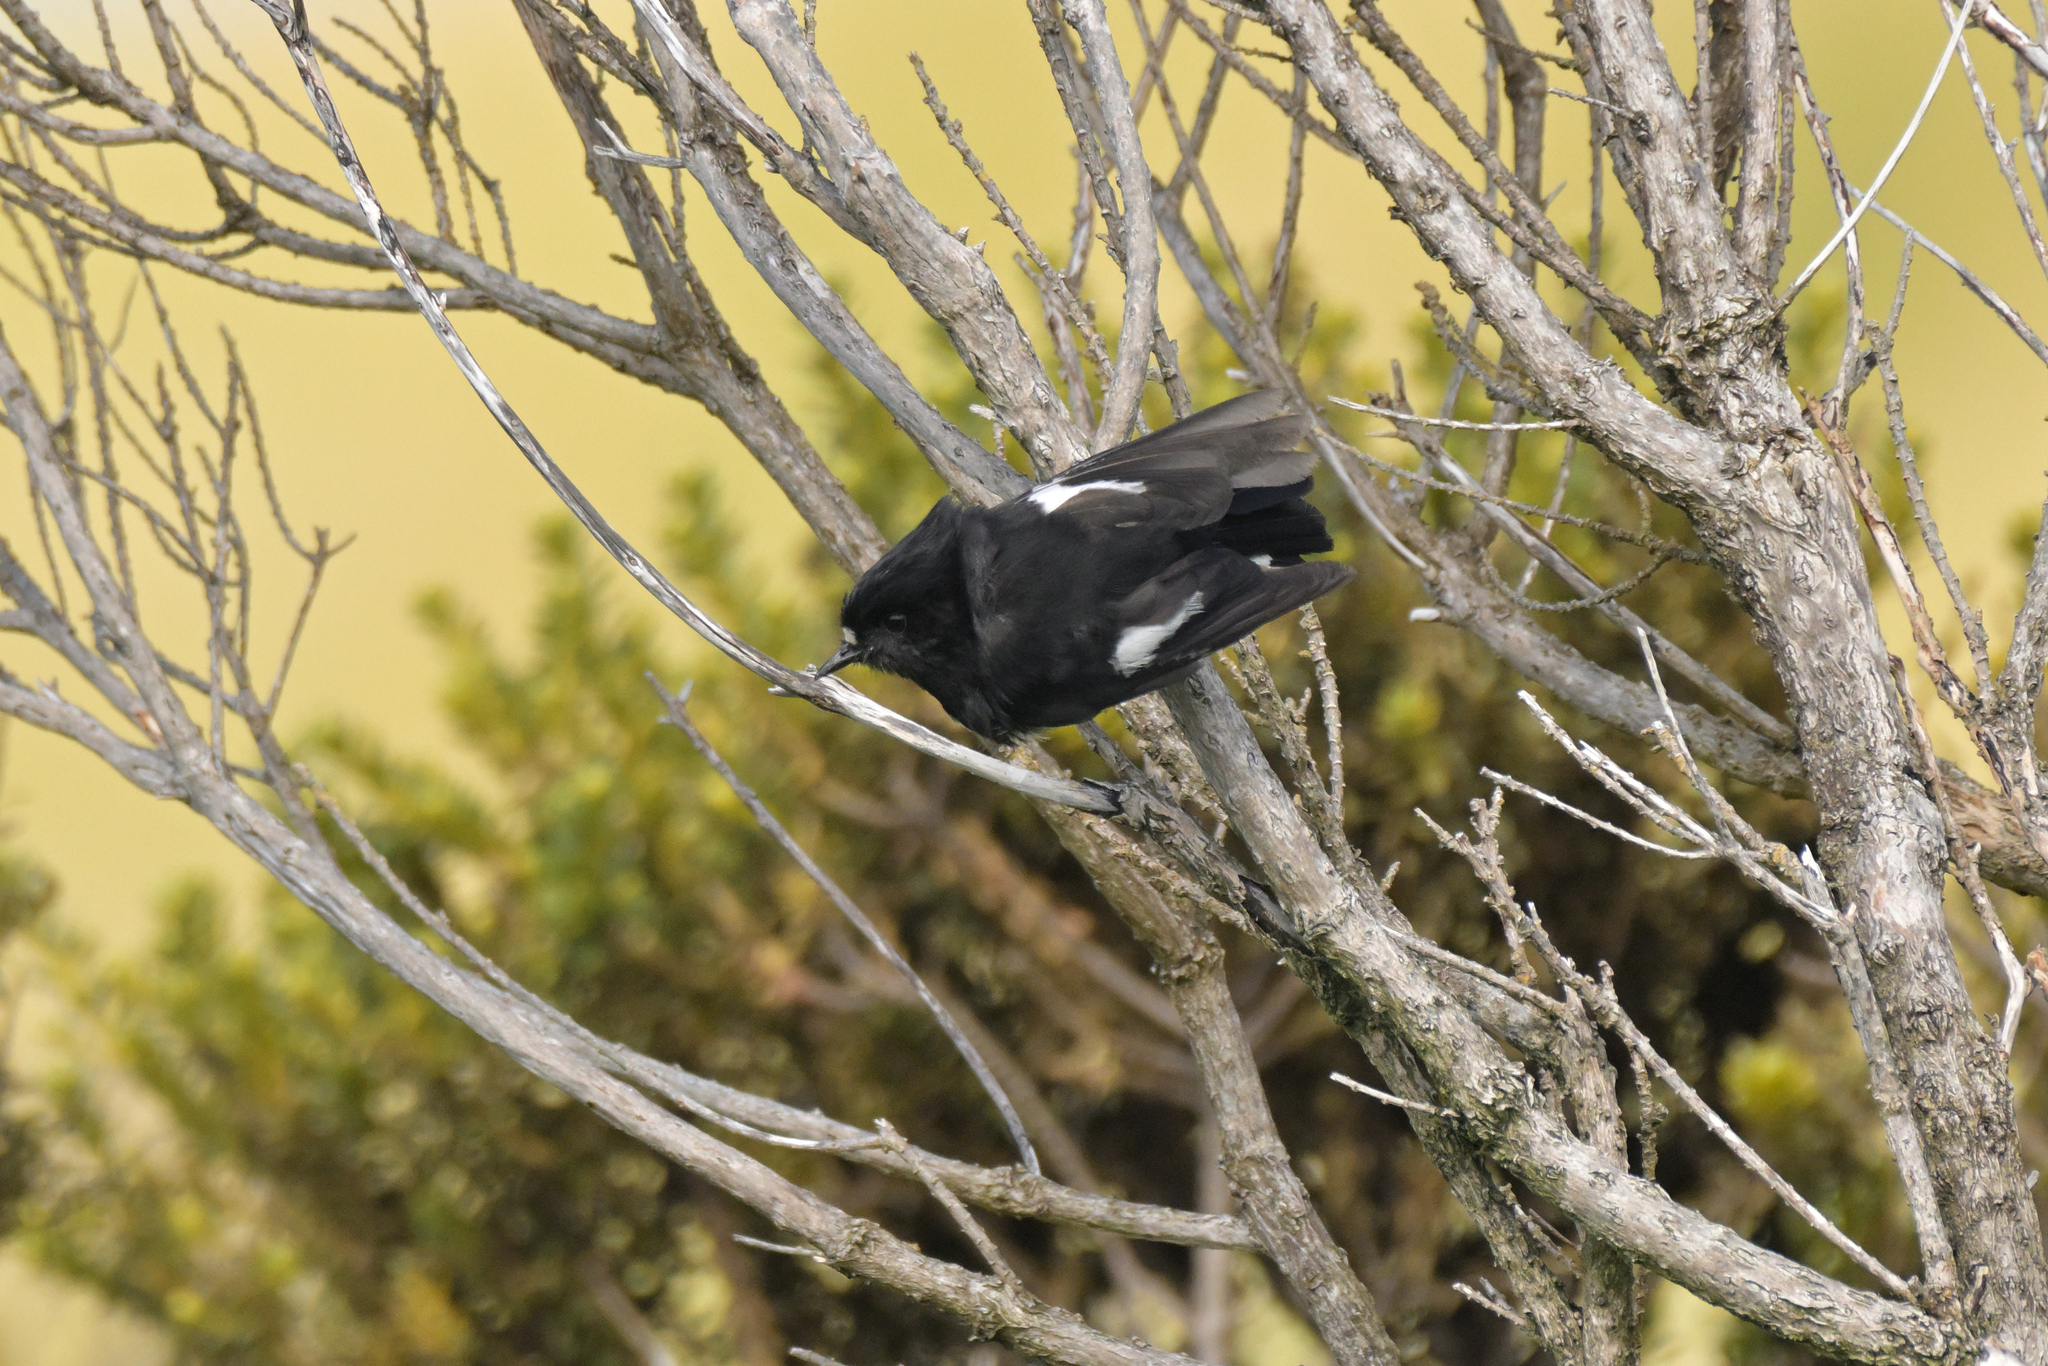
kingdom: Animalia
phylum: Chordata
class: Aves
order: Passeriformes
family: Petroicidae
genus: Petroica
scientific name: Petroica macrocephala
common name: Tomtit
